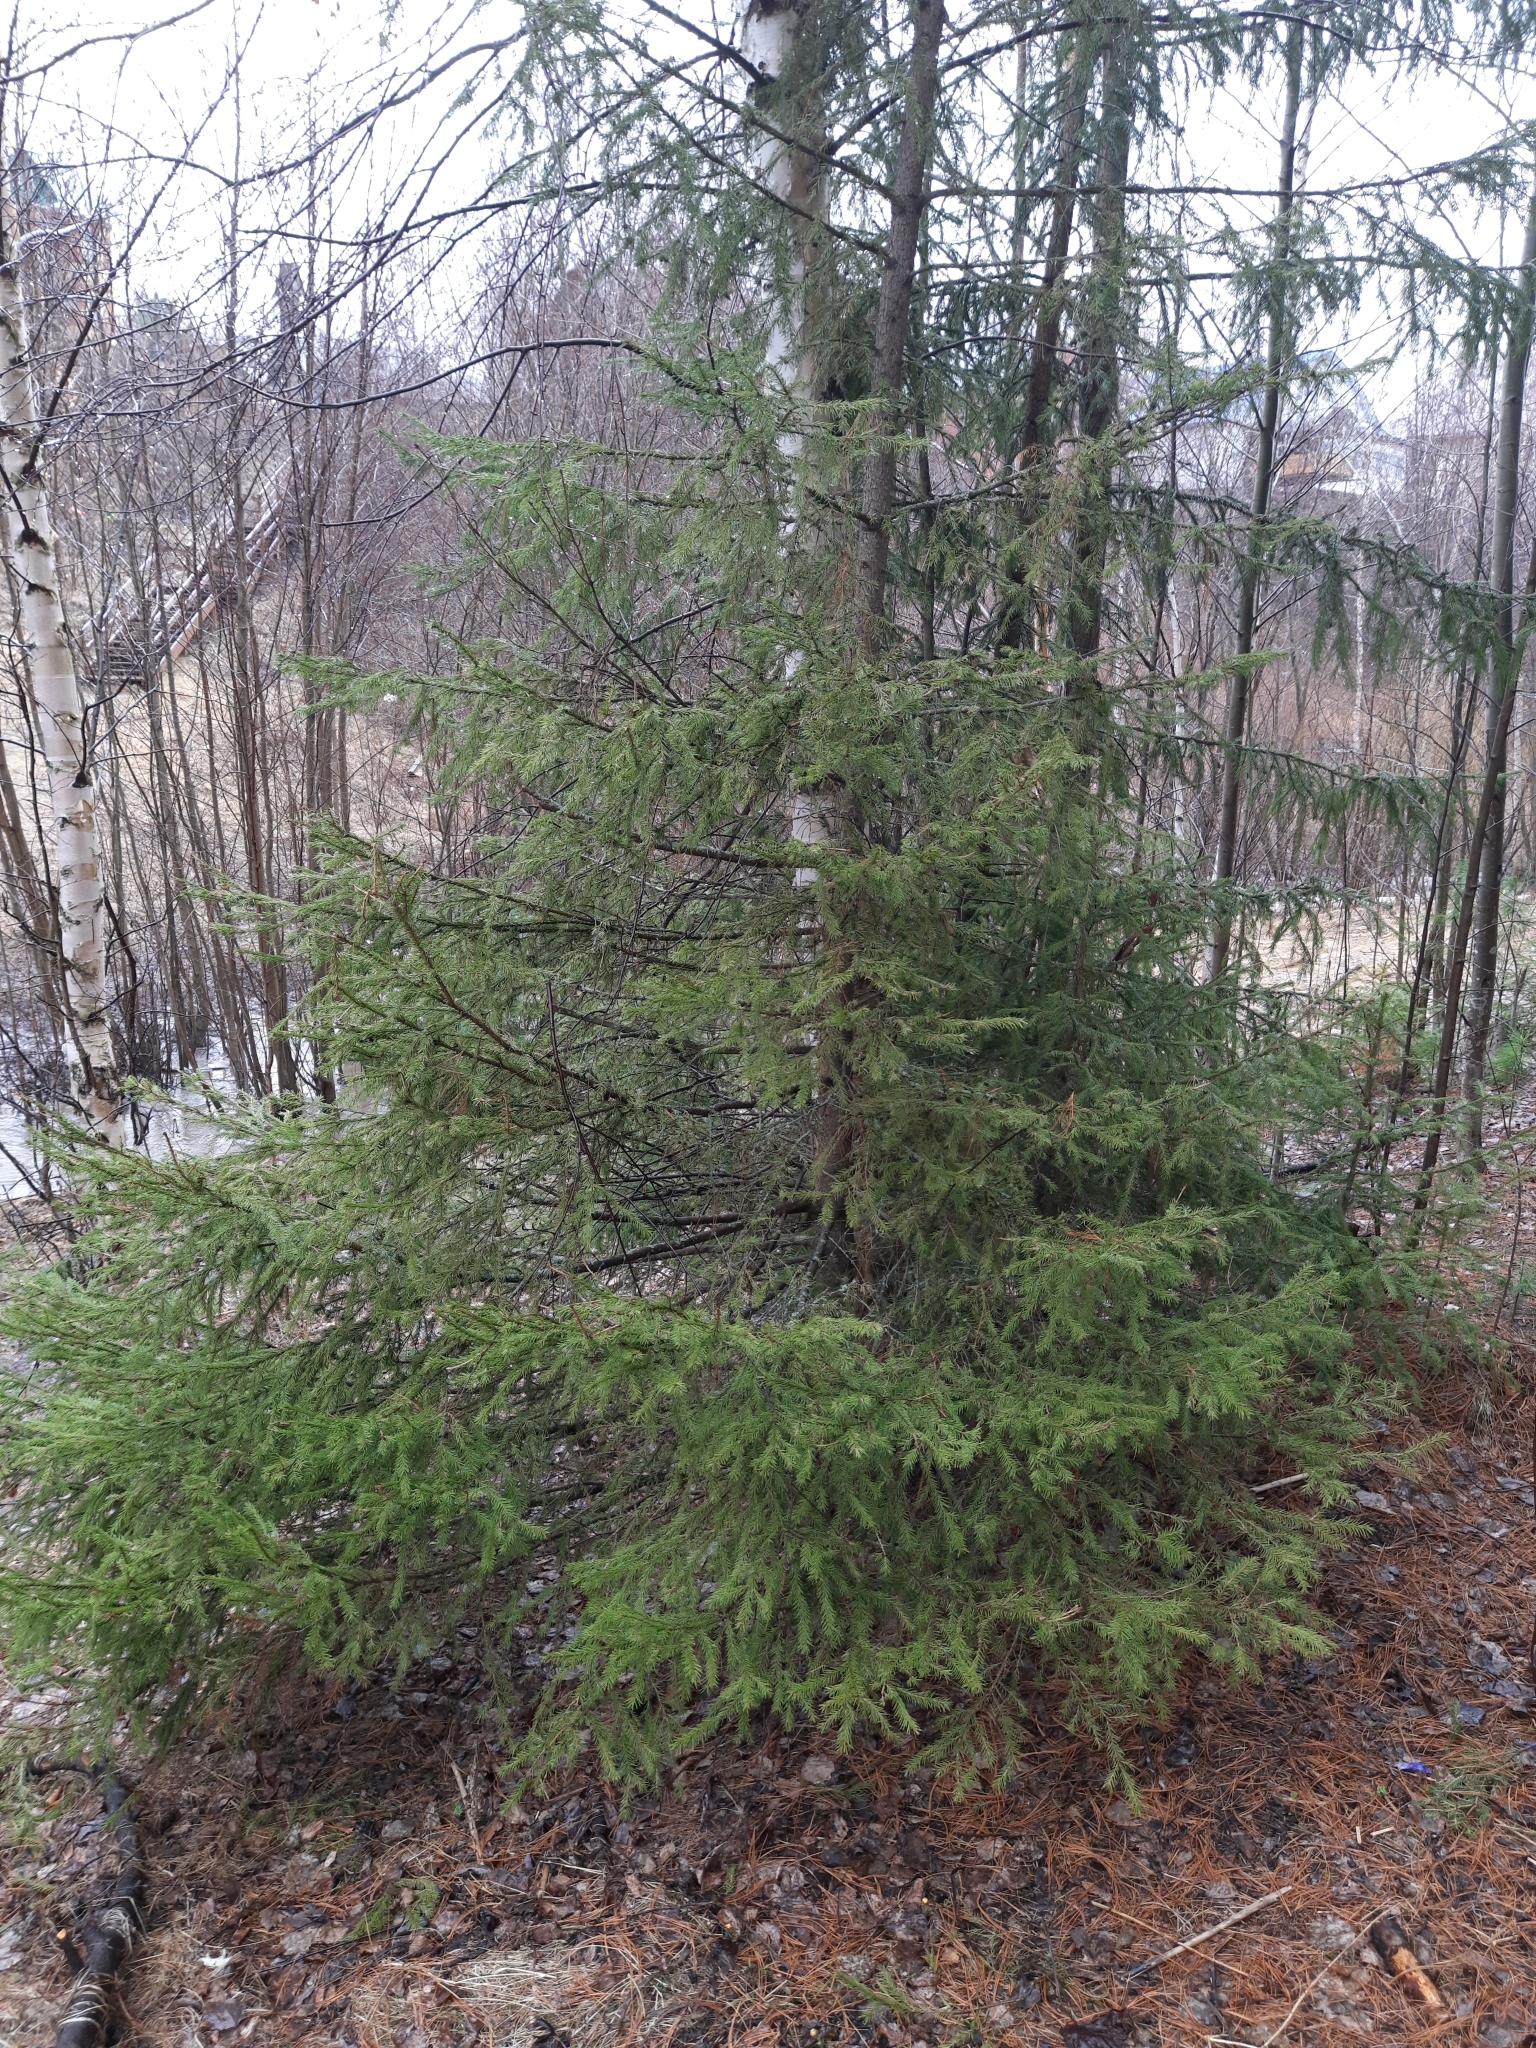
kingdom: Plantae
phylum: Tracheophyta
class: Pinopsida
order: Pinales
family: Pinaceae
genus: Picea
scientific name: Picea obovata
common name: Siberian spruce
